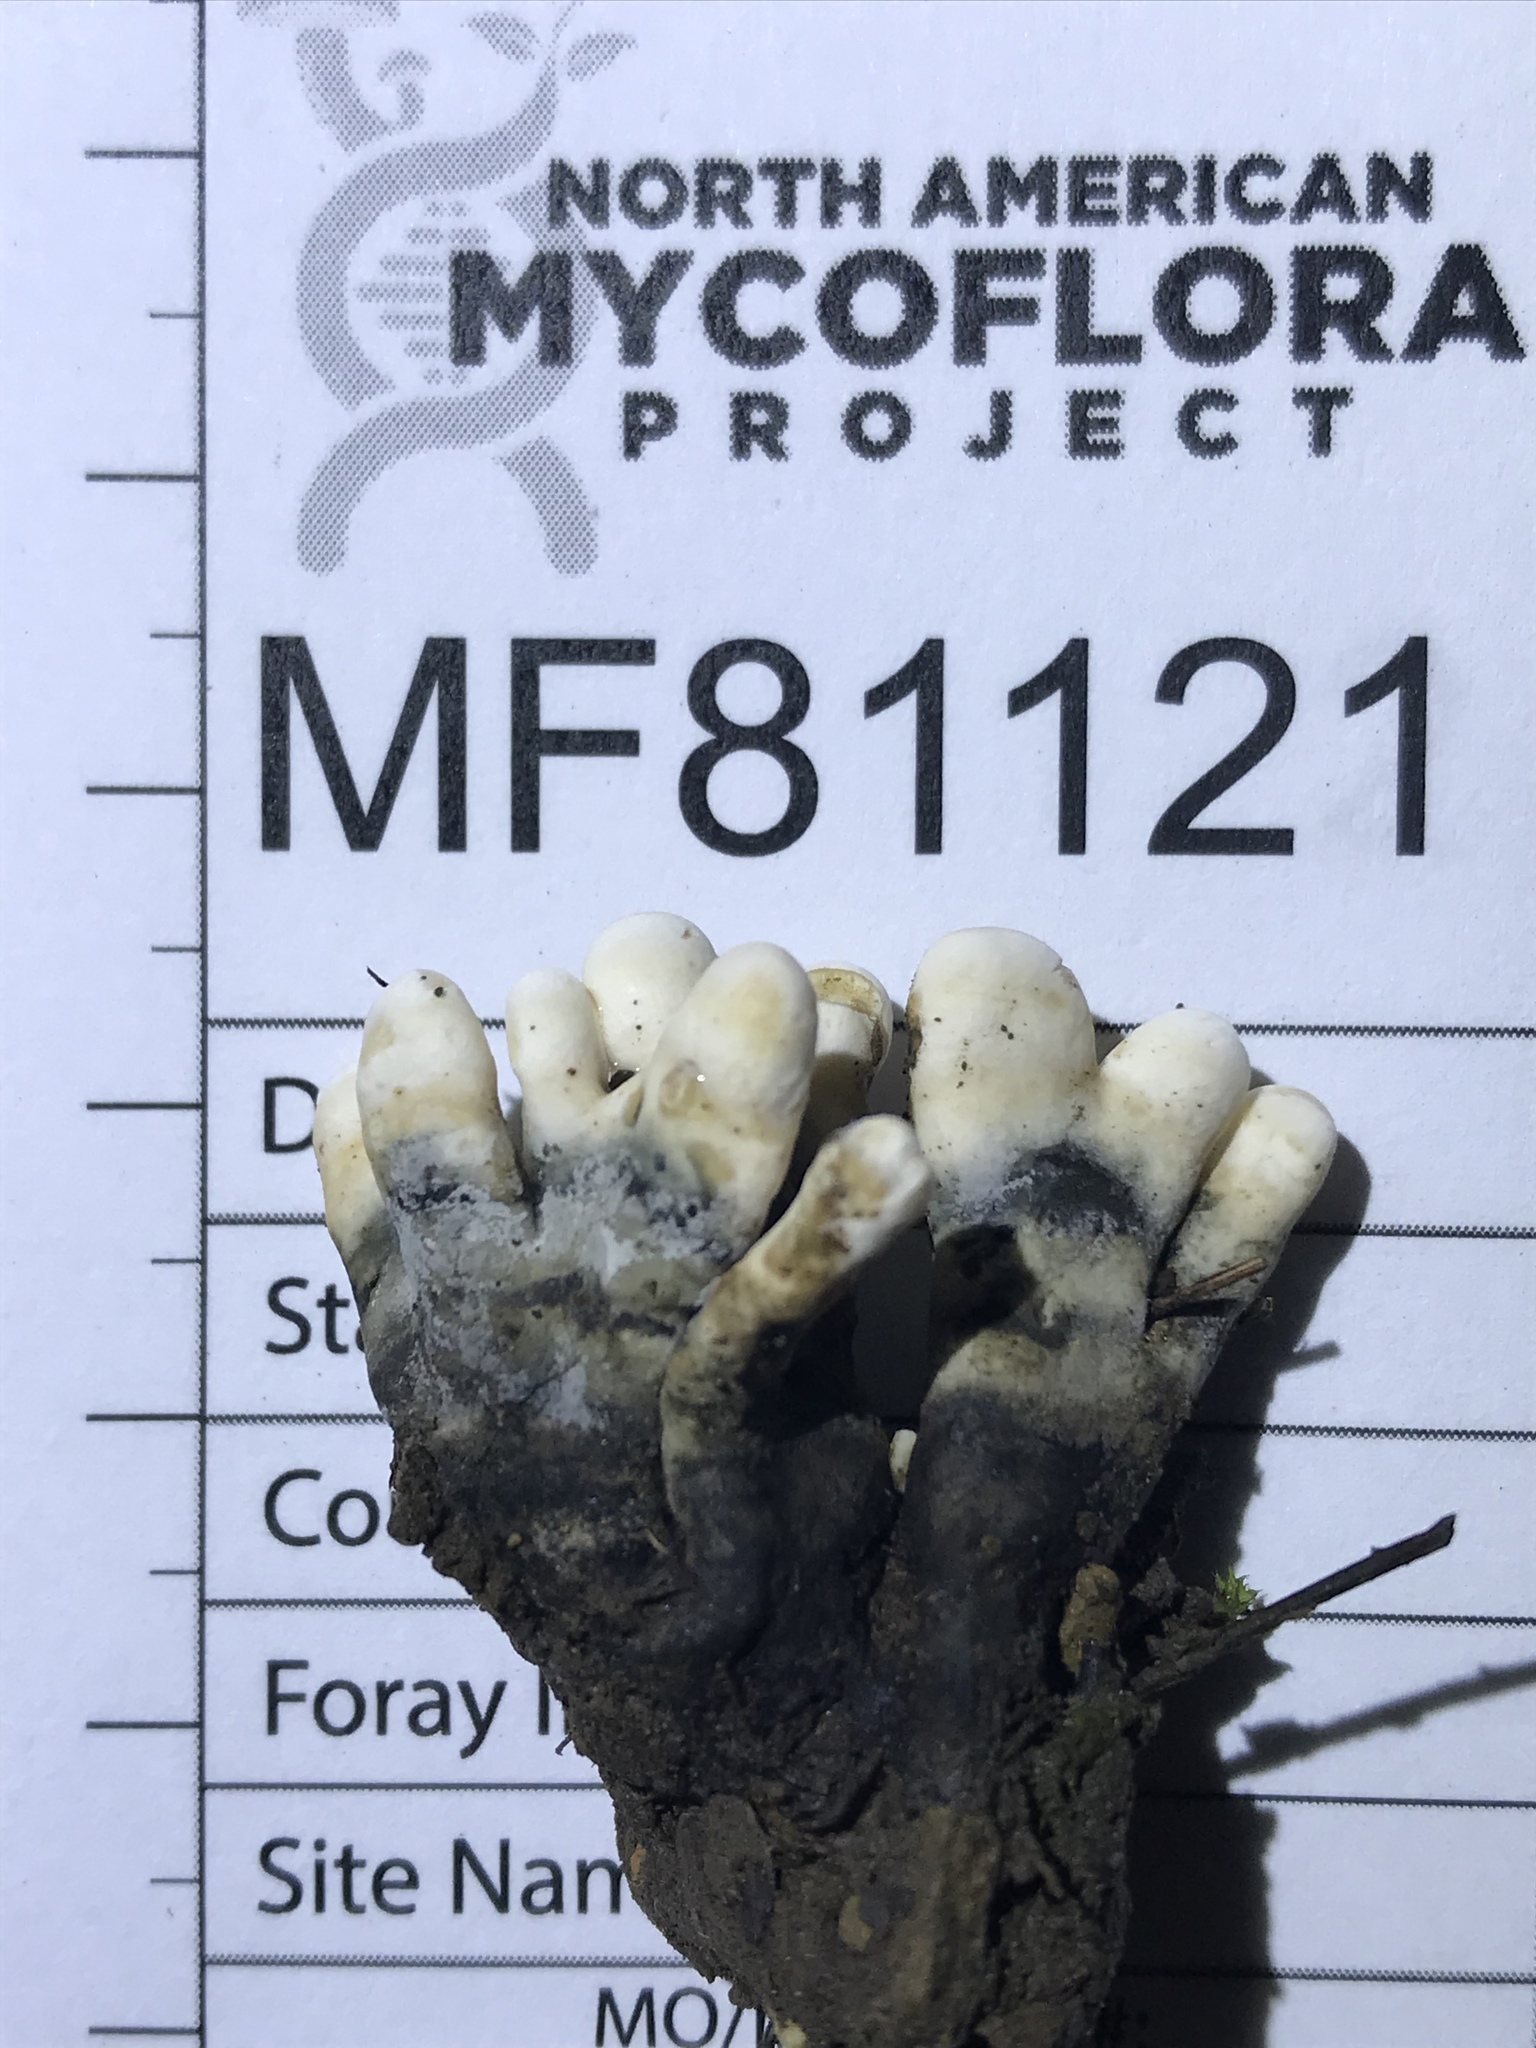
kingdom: Fungi
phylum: Ascomycota
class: Sordariomycetes
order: Xylariales
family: Xylariaceae
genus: Xylaria
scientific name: Xylaria cornu-damae
